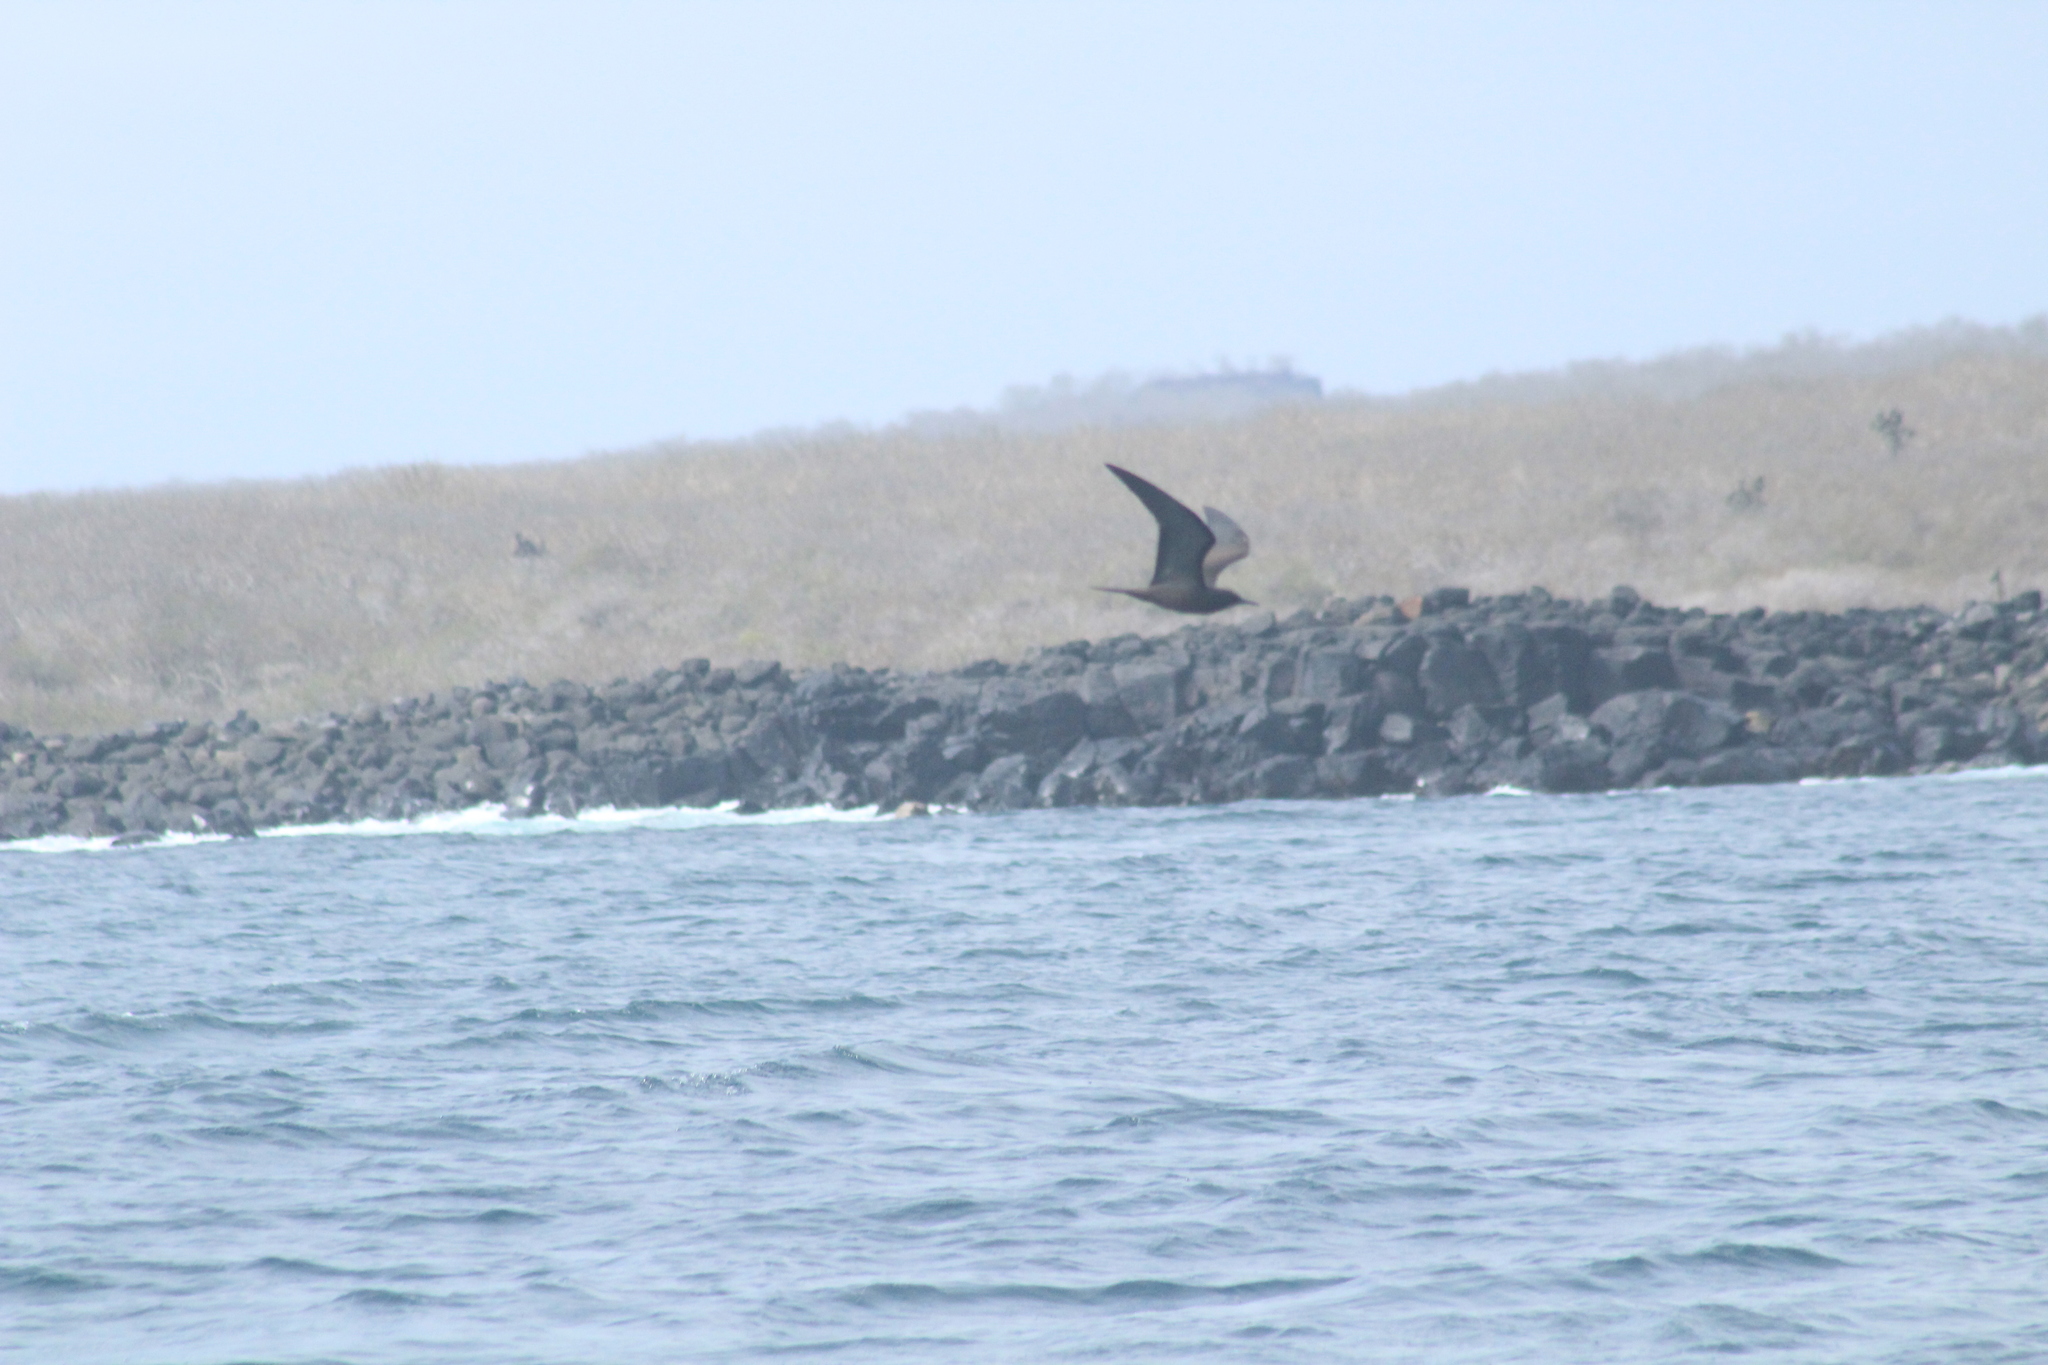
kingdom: Animalia
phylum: Chordata
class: Aves
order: Charadriiformes
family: Laridae
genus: Anous
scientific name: Anous stolidus
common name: Brown noddy
